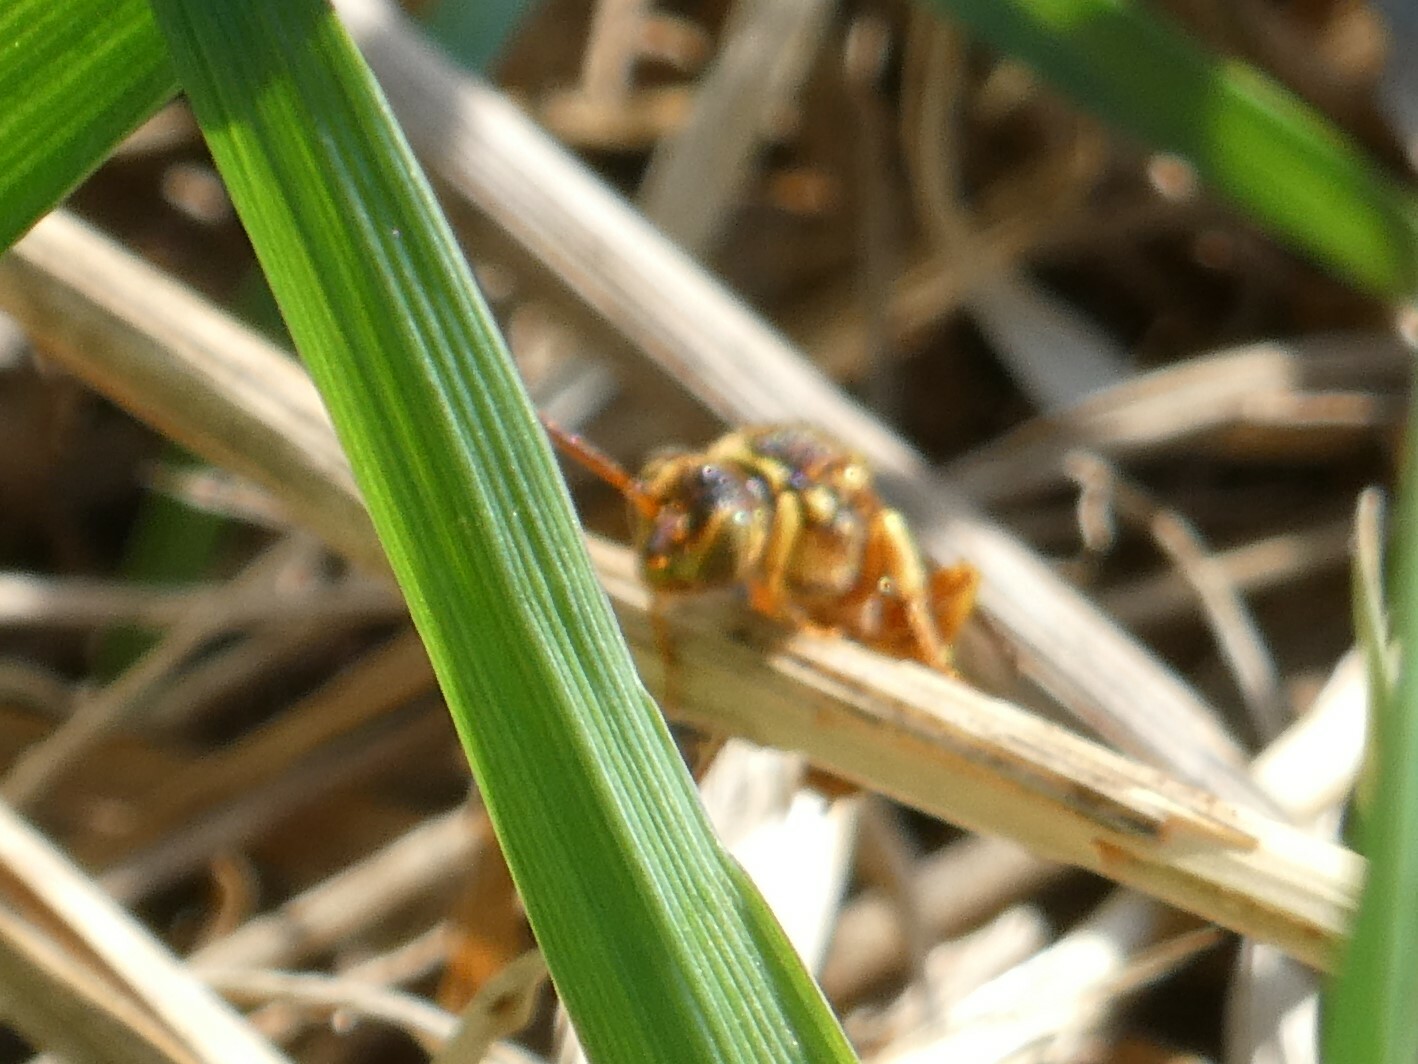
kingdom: Animalia
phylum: Arthropoda
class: Insecta
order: Hymenoptera
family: Apidae
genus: Nomada
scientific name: Nomada luteoloides
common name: Black-and-yellow nomad bee
